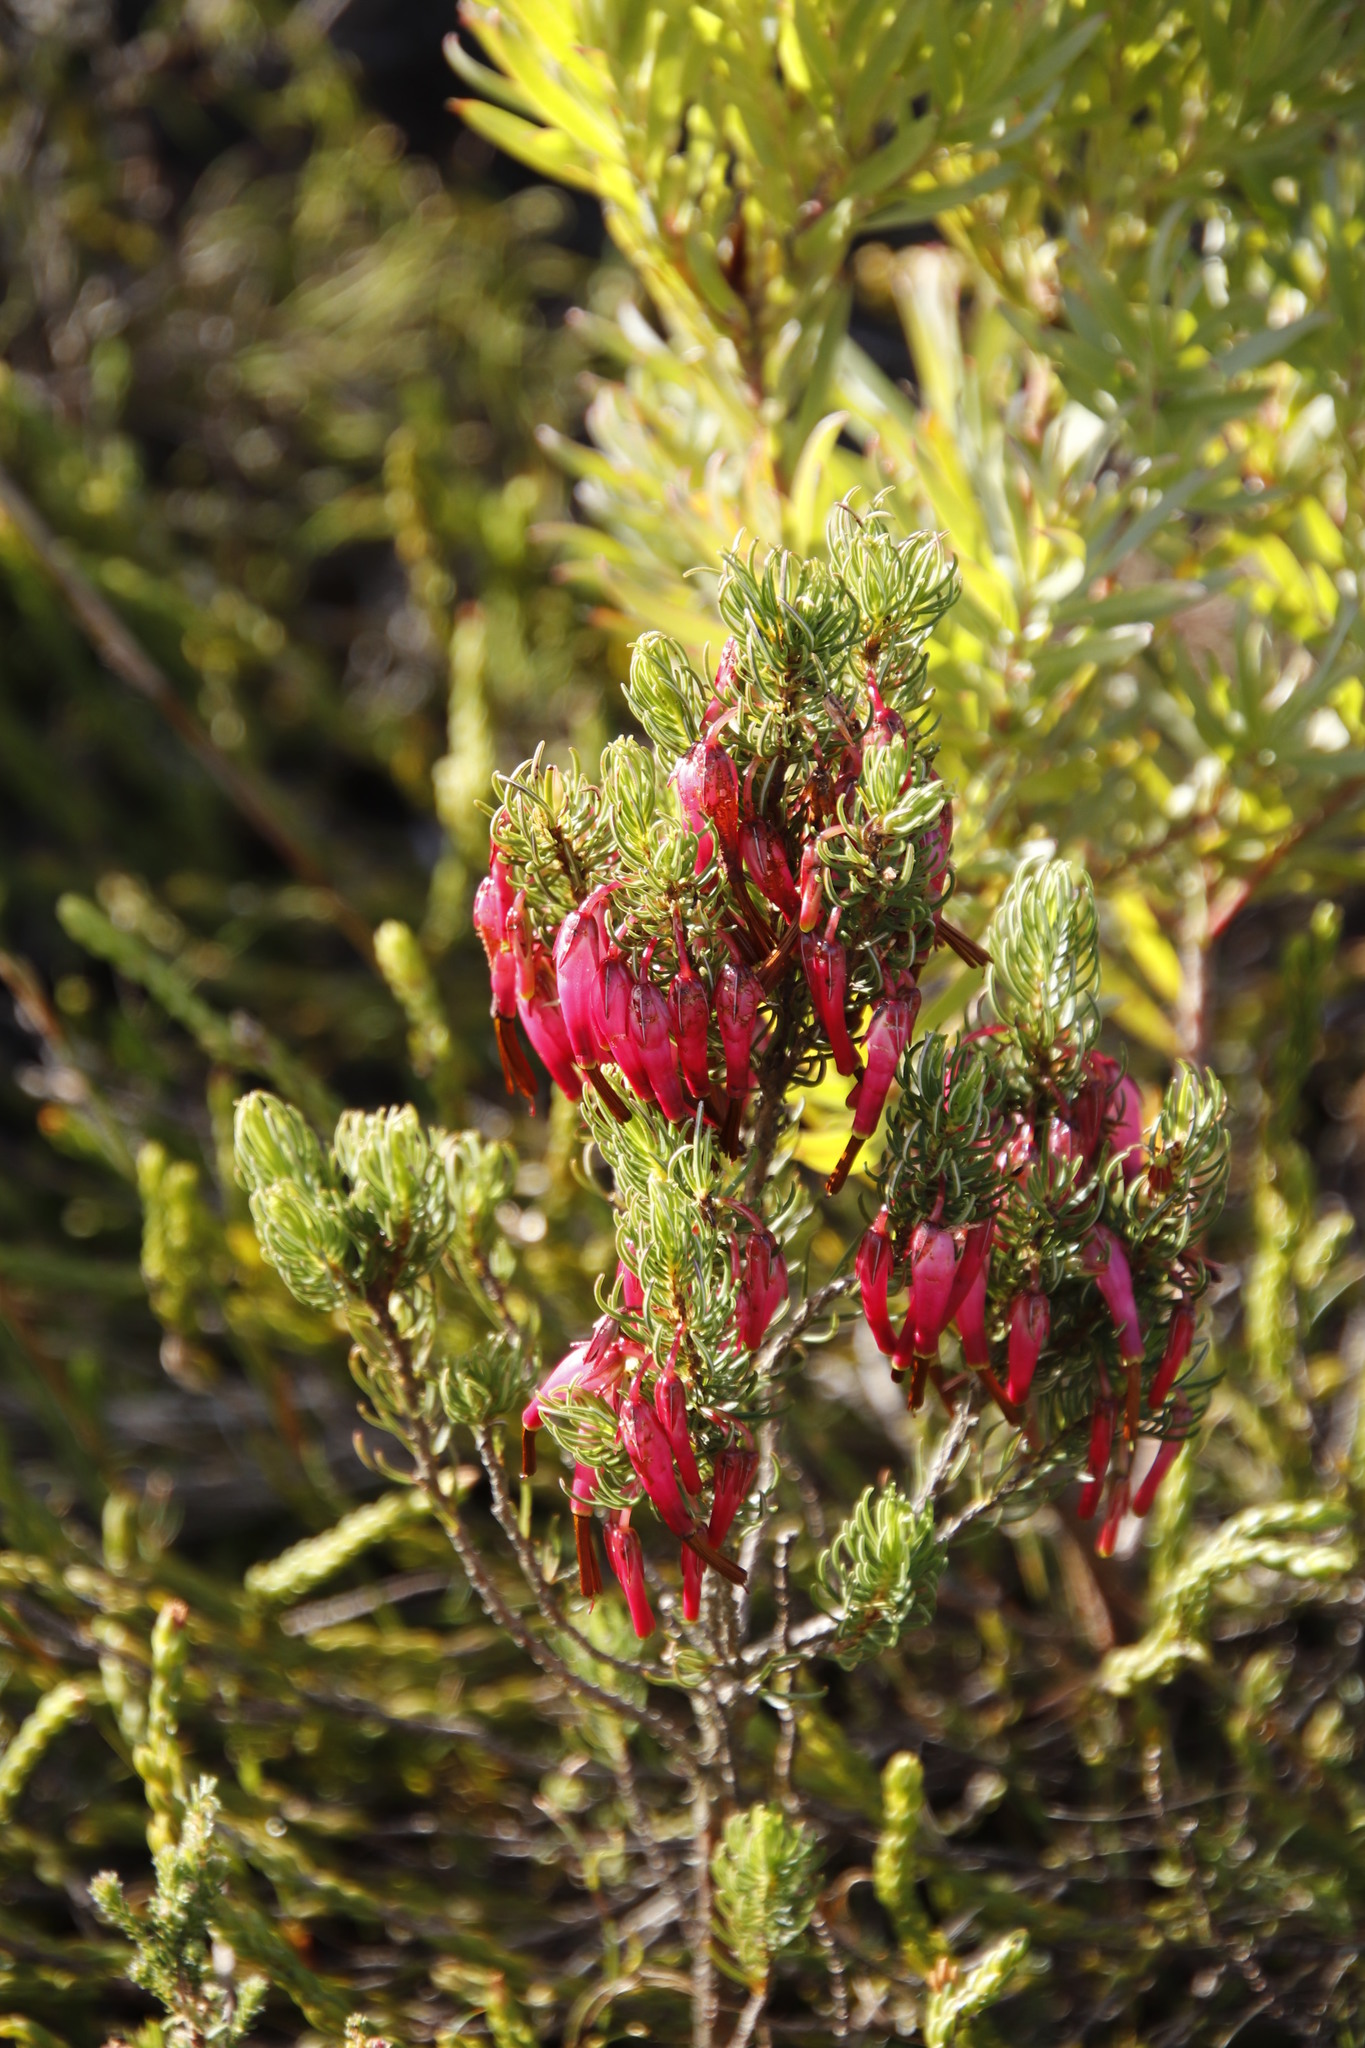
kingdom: Plantae
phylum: Tracheophyta
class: Magnoliopsida
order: Ericales
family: Ericaceae
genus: Erica
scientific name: Erica plukenetii
